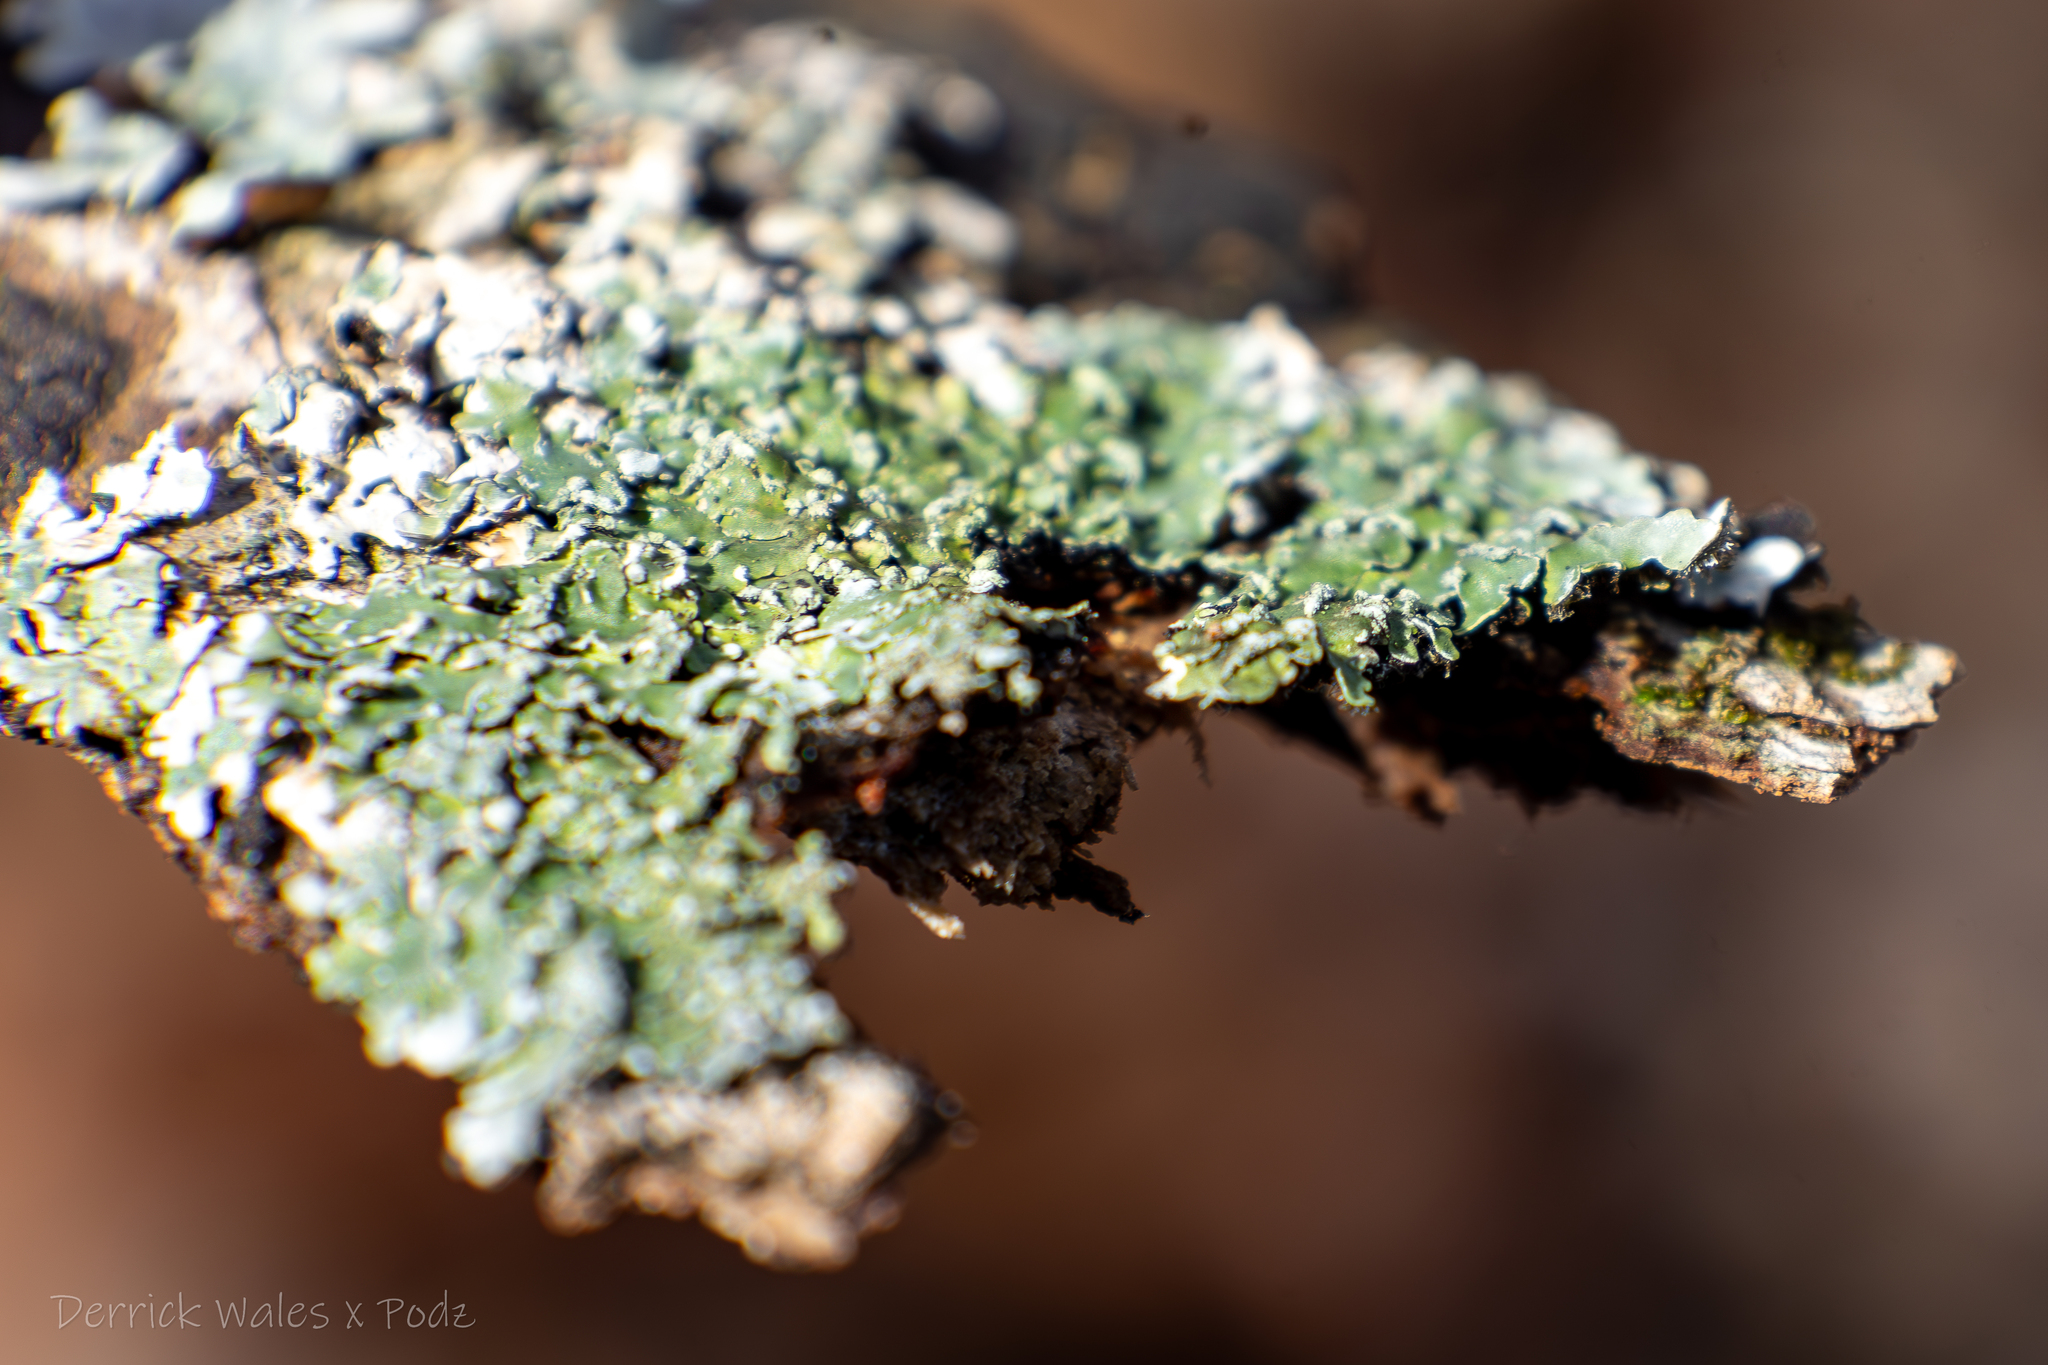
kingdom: Fungi
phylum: Ascomycota
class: Lecanoromycetes
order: Caliciales
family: Caliciaceae
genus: Pyxine
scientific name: Pyxine sorediata
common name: Mustard lichen
